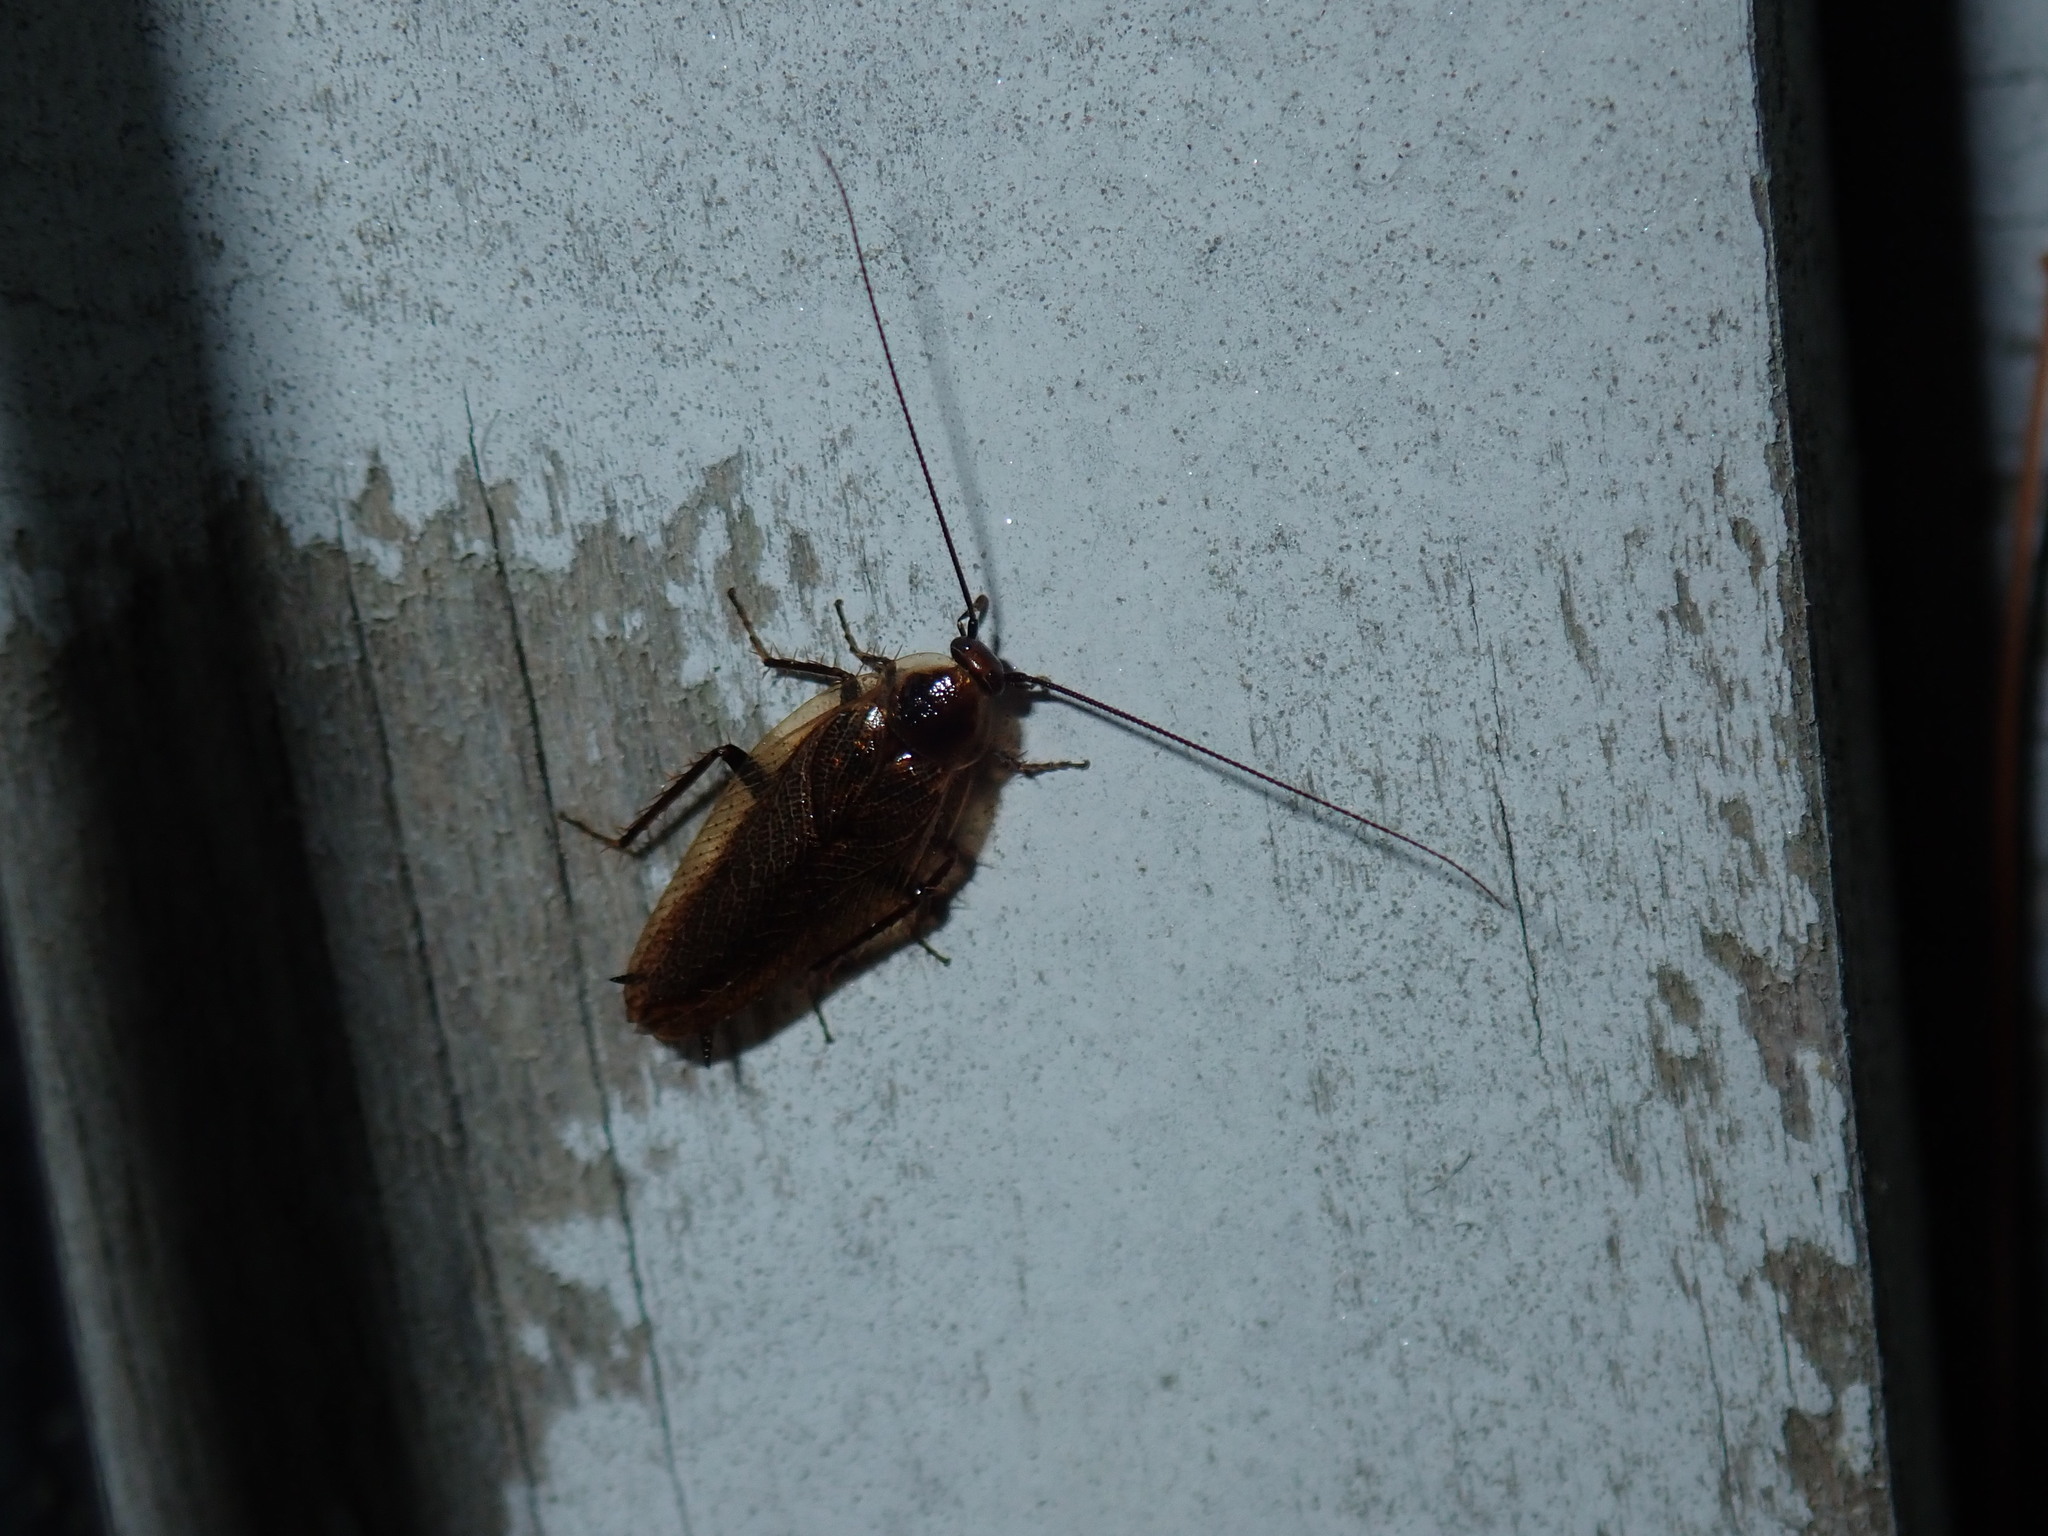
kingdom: Animalia
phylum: Arthropoda
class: Insecta
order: Blattodea
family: Ectobiidae
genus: Ectobius
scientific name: Ectobius lapponicus
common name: Dusky cockroach
